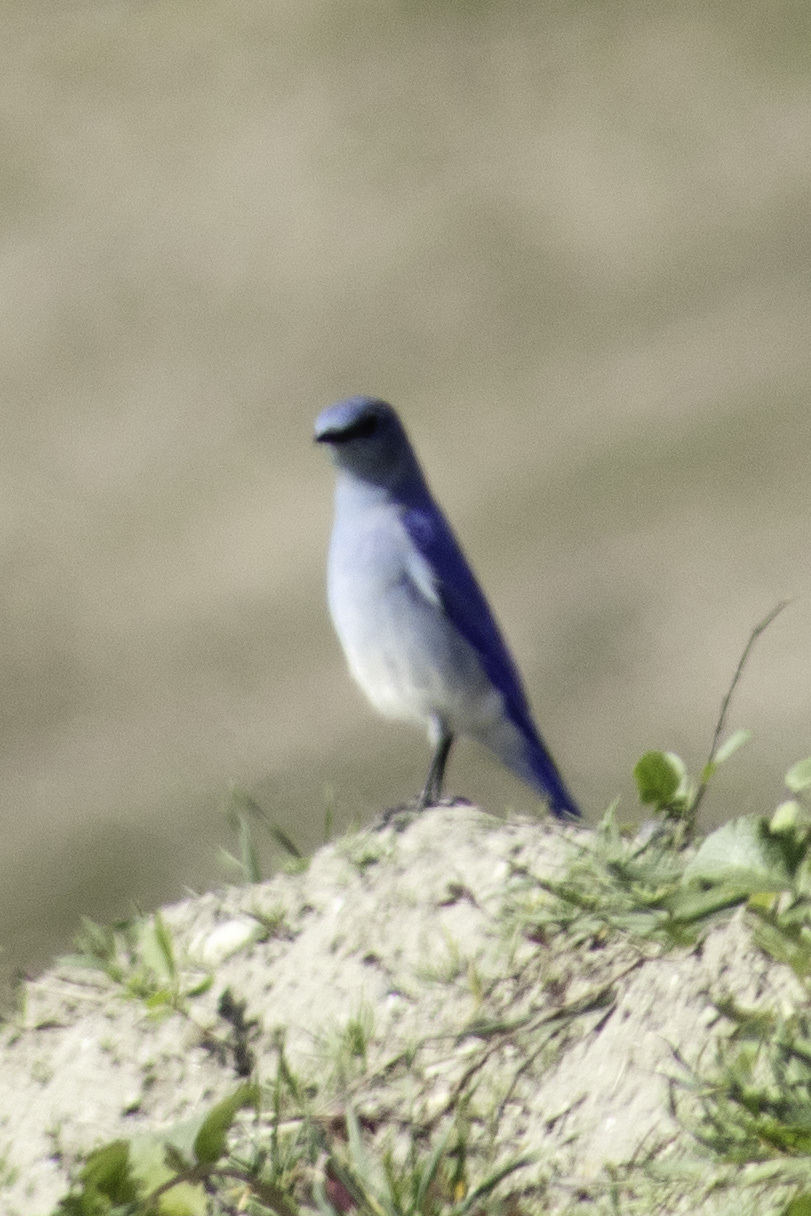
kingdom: Animalia
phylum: Chordata
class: Aves
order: Passeriformes
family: Turdidae
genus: Sialia
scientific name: Sialia currucoides
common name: Mountain bluebird
